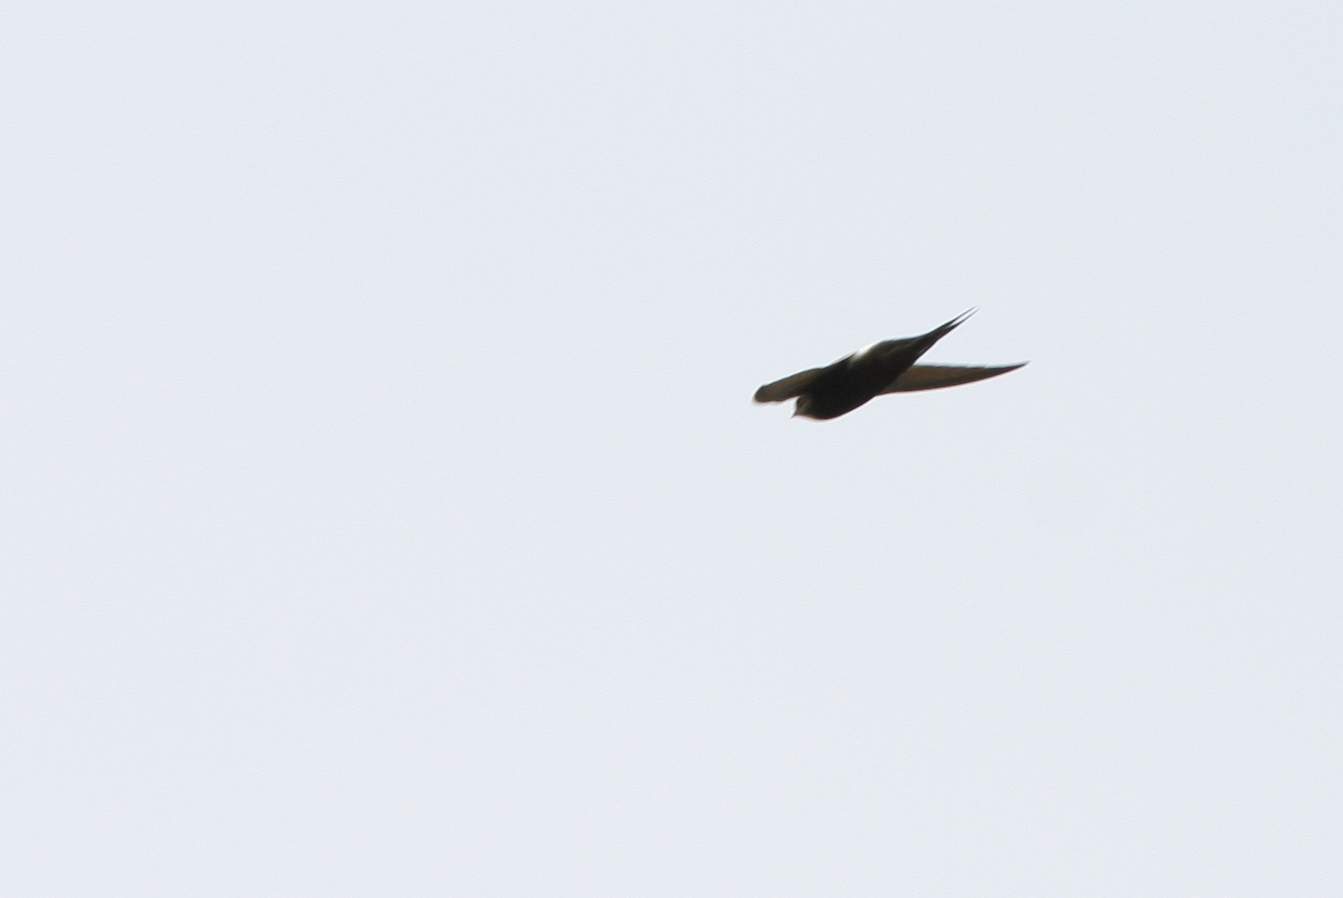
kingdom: Animalia
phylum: Chordata
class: Aves
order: Apodiformes
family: Apodidae
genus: Apus
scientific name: Apus caffer
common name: White-rumped swift
